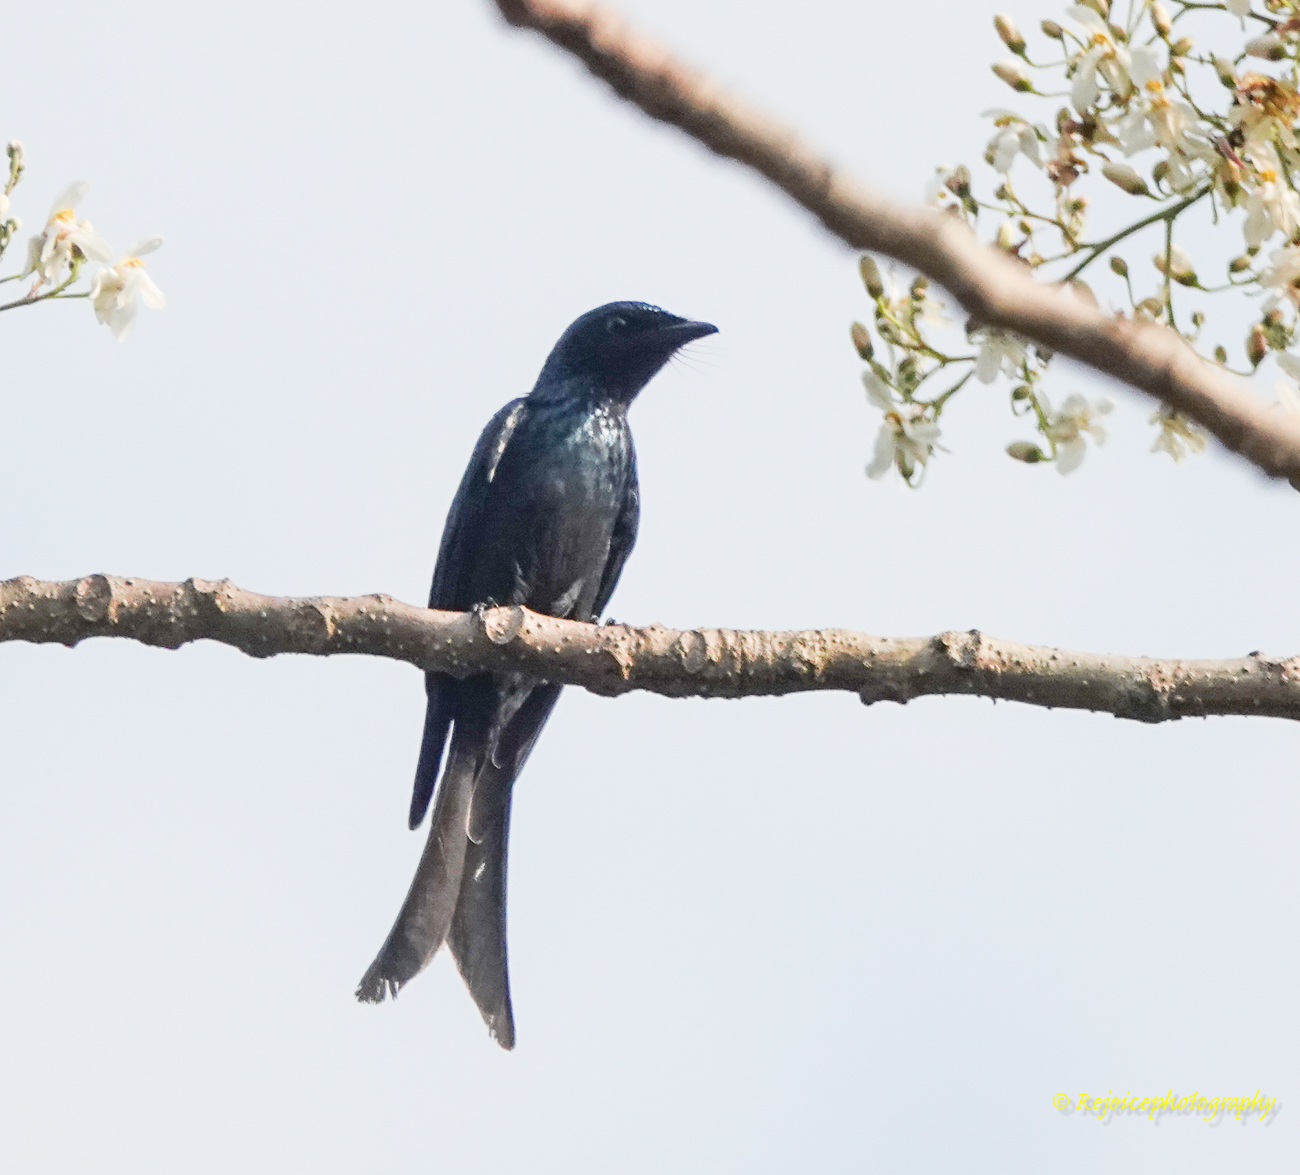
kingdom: Animalia
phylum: Chordata
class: Aves
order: Passeriformes
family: Dicruridae
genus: Dicrurus
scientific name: Dicrurus aeneus
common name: Bronzed drongo
